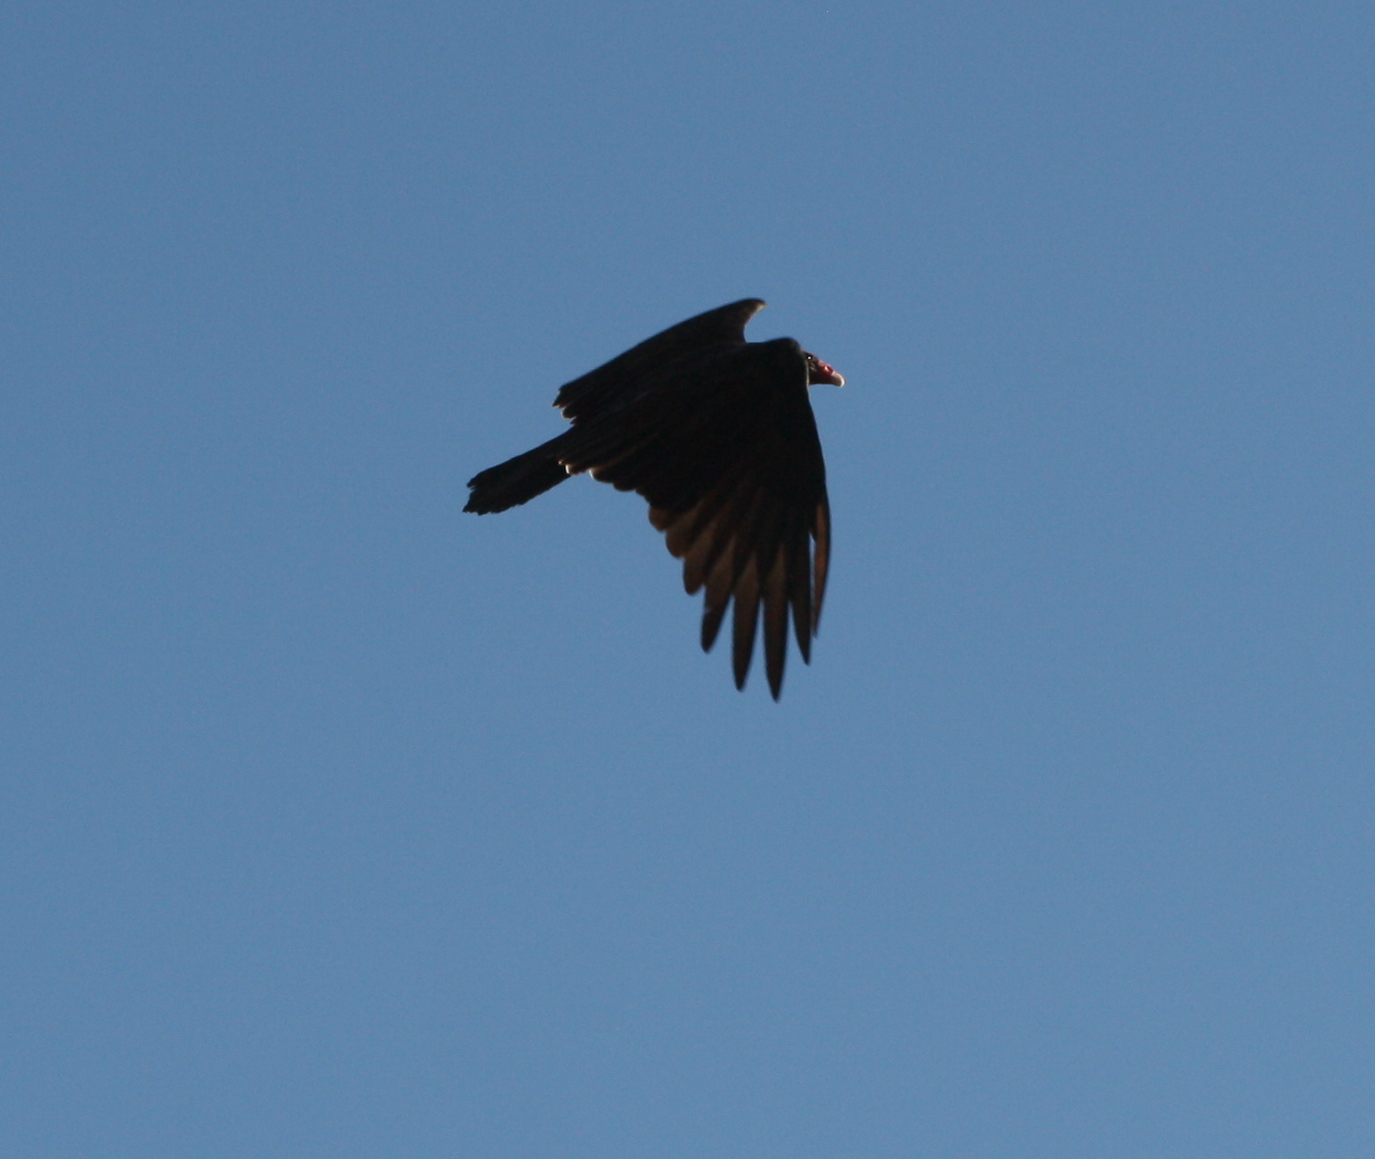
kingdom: Animalia
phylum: Chordata
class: Aves
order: Accipitriformes
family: Cathartidae
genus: Cathartes
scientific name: Cathartes aura
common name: Turkey vulture
